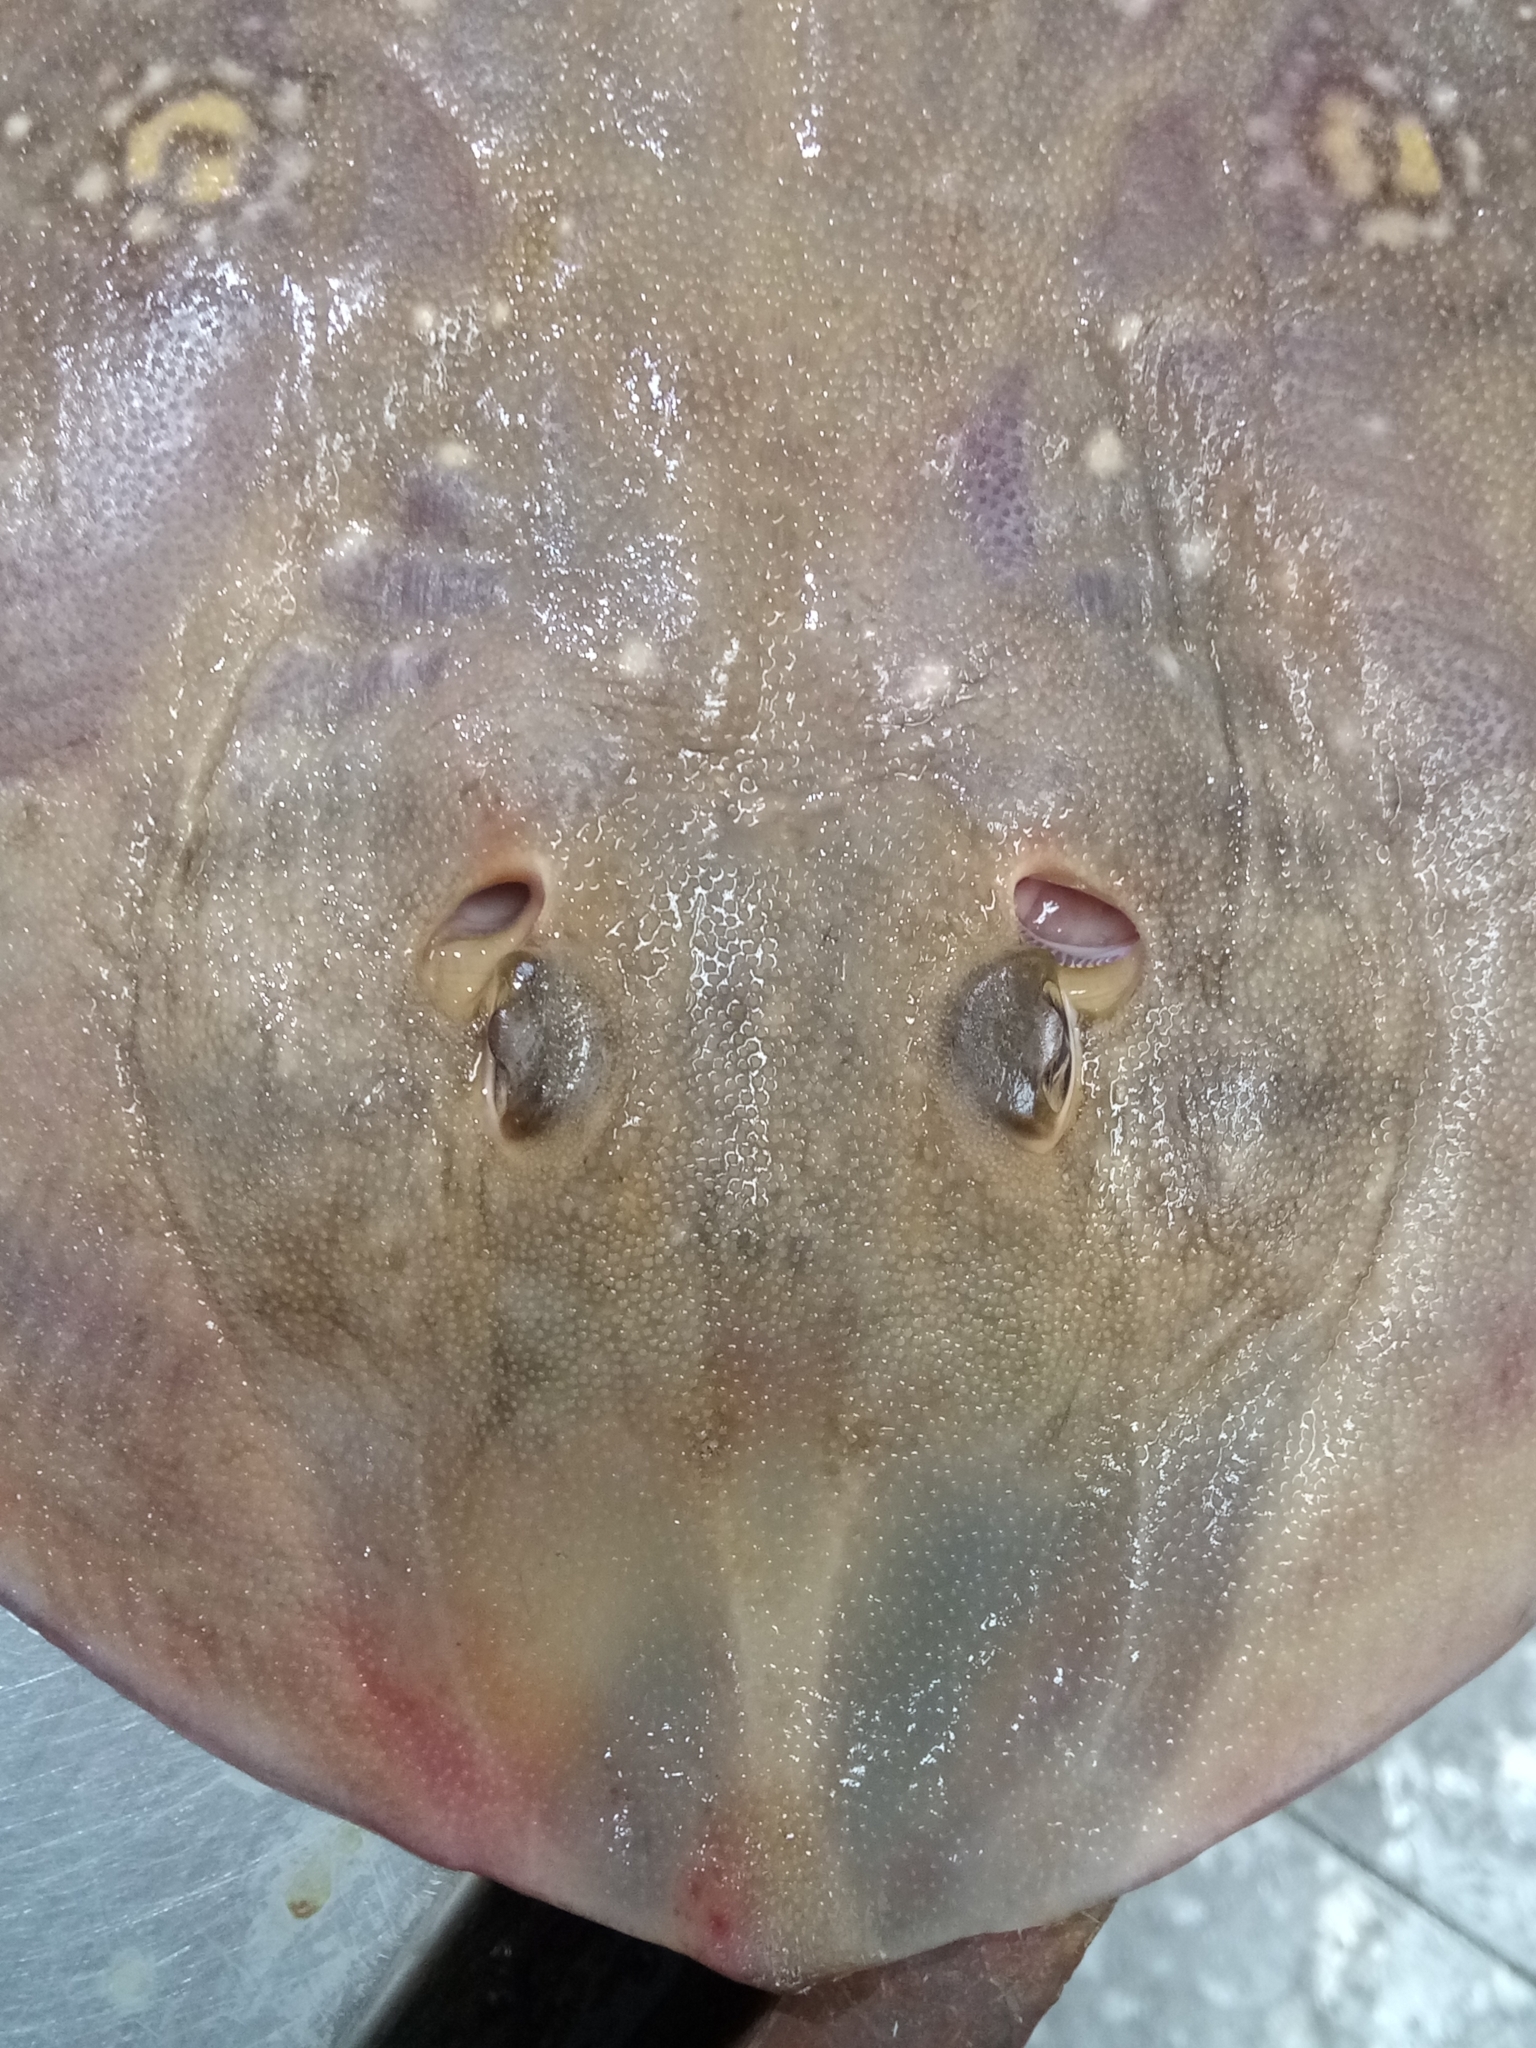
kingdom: Animalia
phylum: Chordata
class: Elasmobranchii
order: Rajiformes
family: Rajidae
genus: Raja
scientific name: Raja radula
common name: Rough ray
